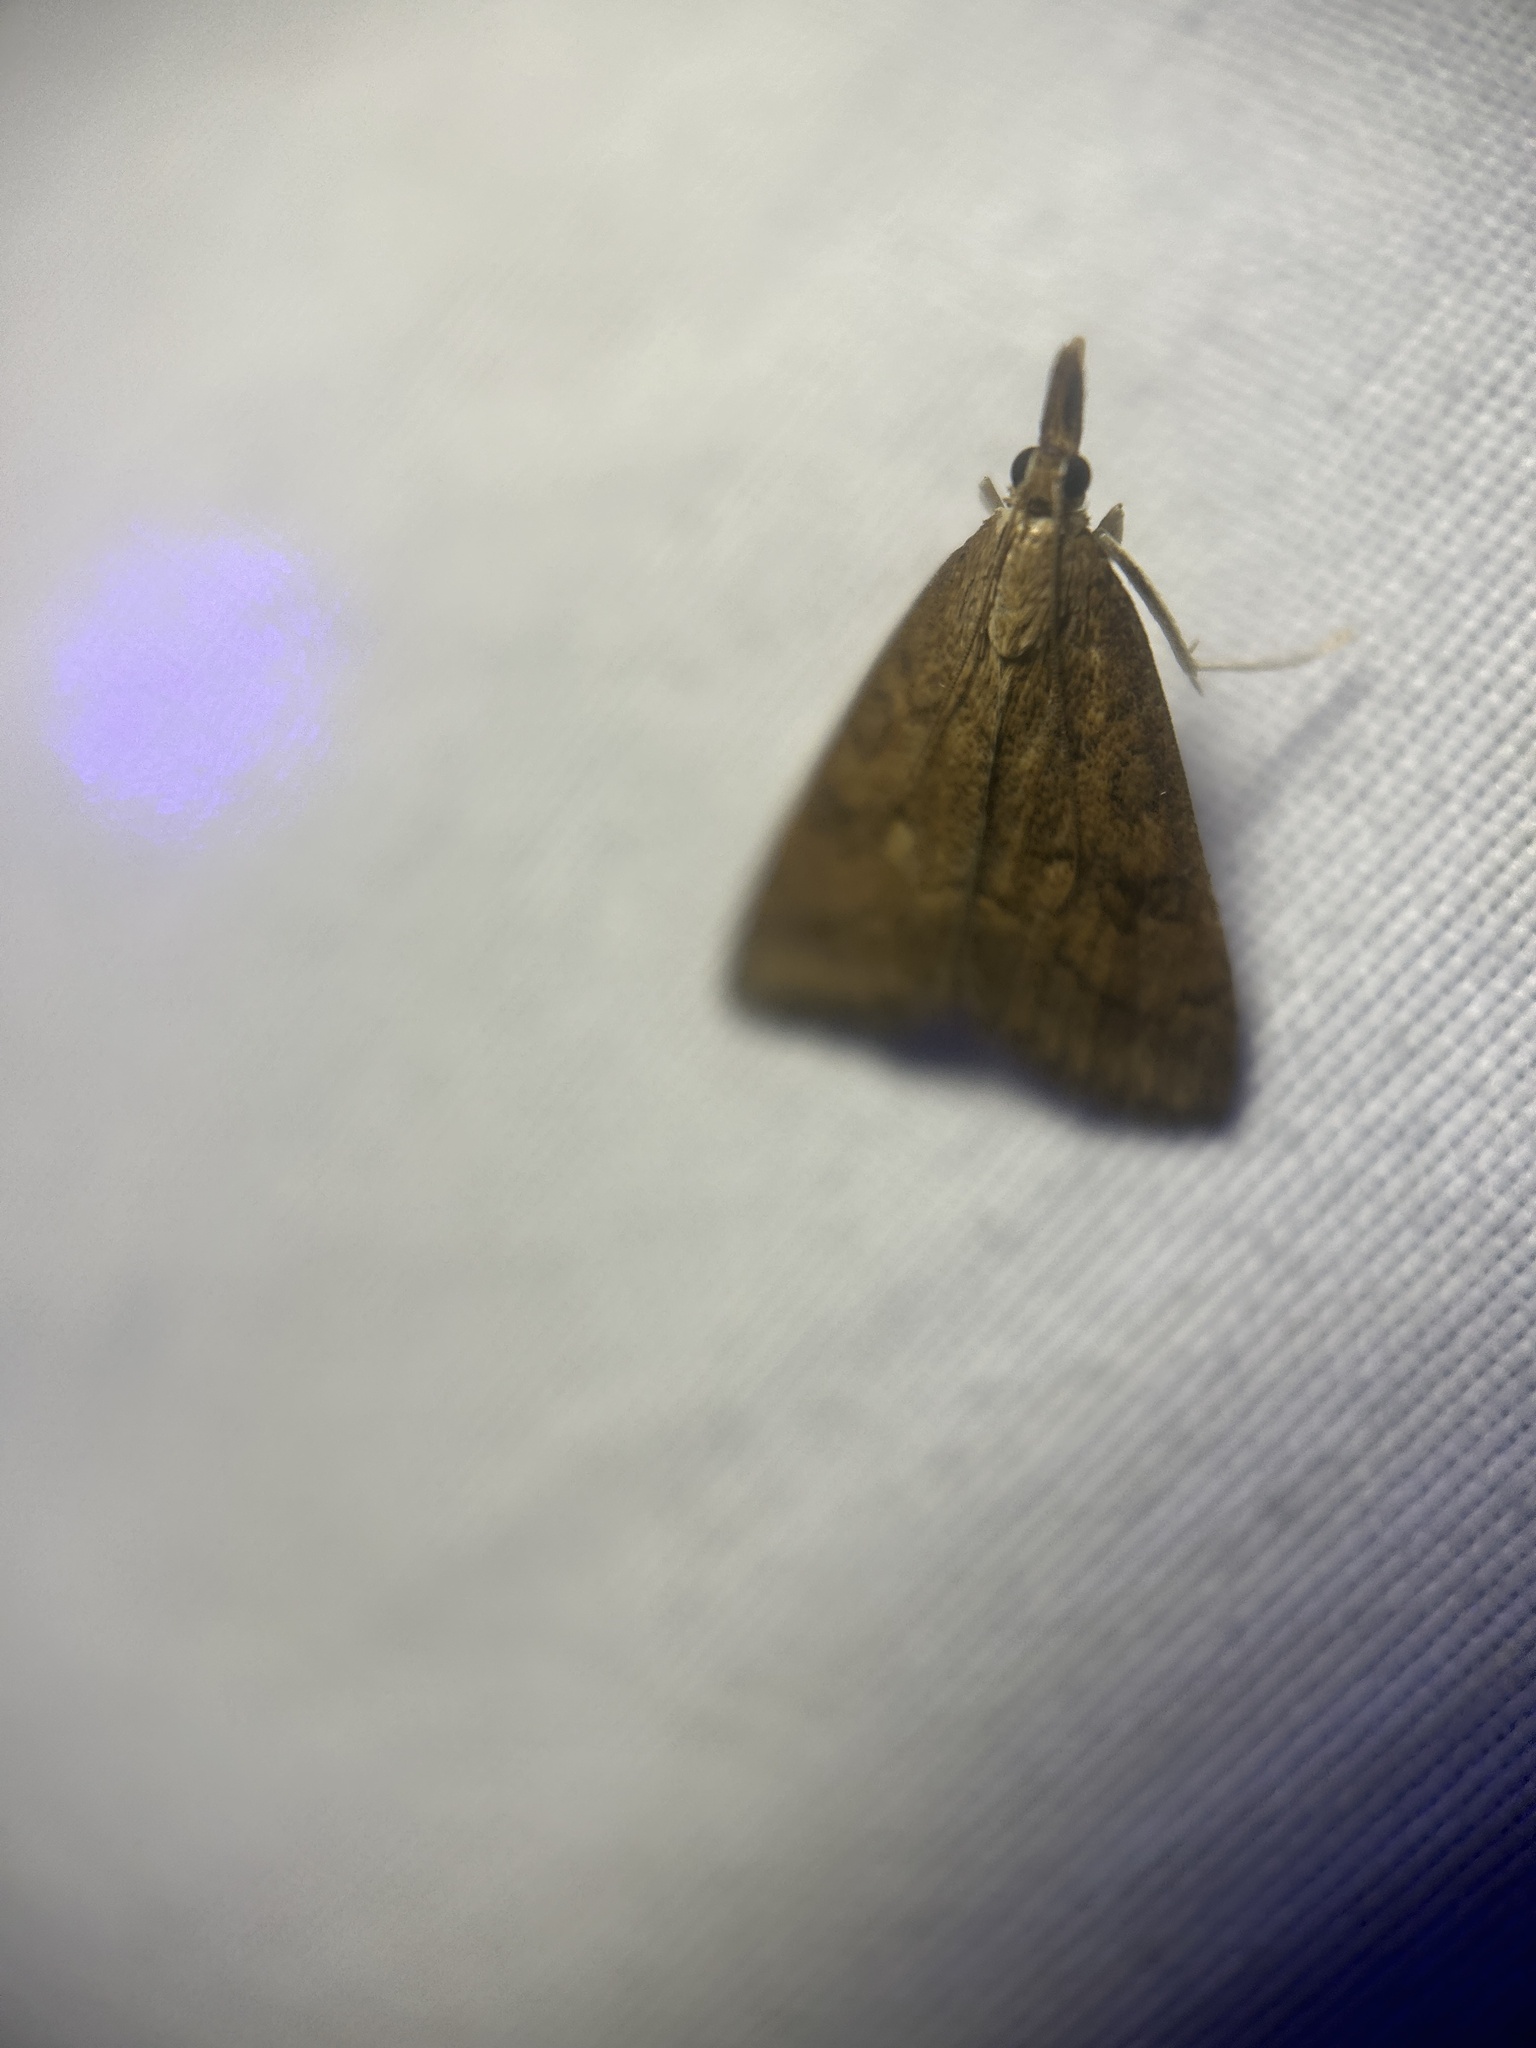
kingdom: Animalia
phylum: Arthropoda
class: Insecta
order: Lepidoptera
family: Crambidae
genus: Udea
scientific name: Udea rubigalis
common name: Celery leaftier moth
